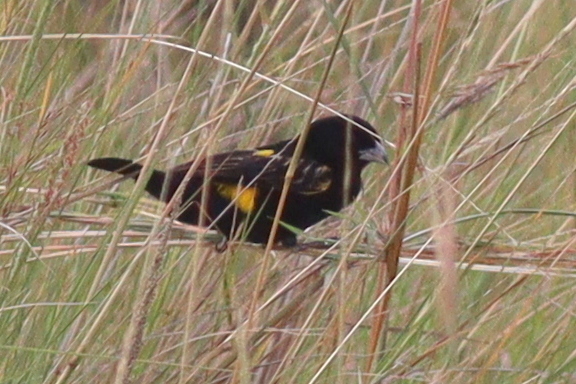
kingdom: Animalia
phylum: Chordata
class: Aves
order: Passeriformes
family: Ploceidae
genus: Euplectes
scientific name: Euplectes capensis
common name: Yellow bishop
